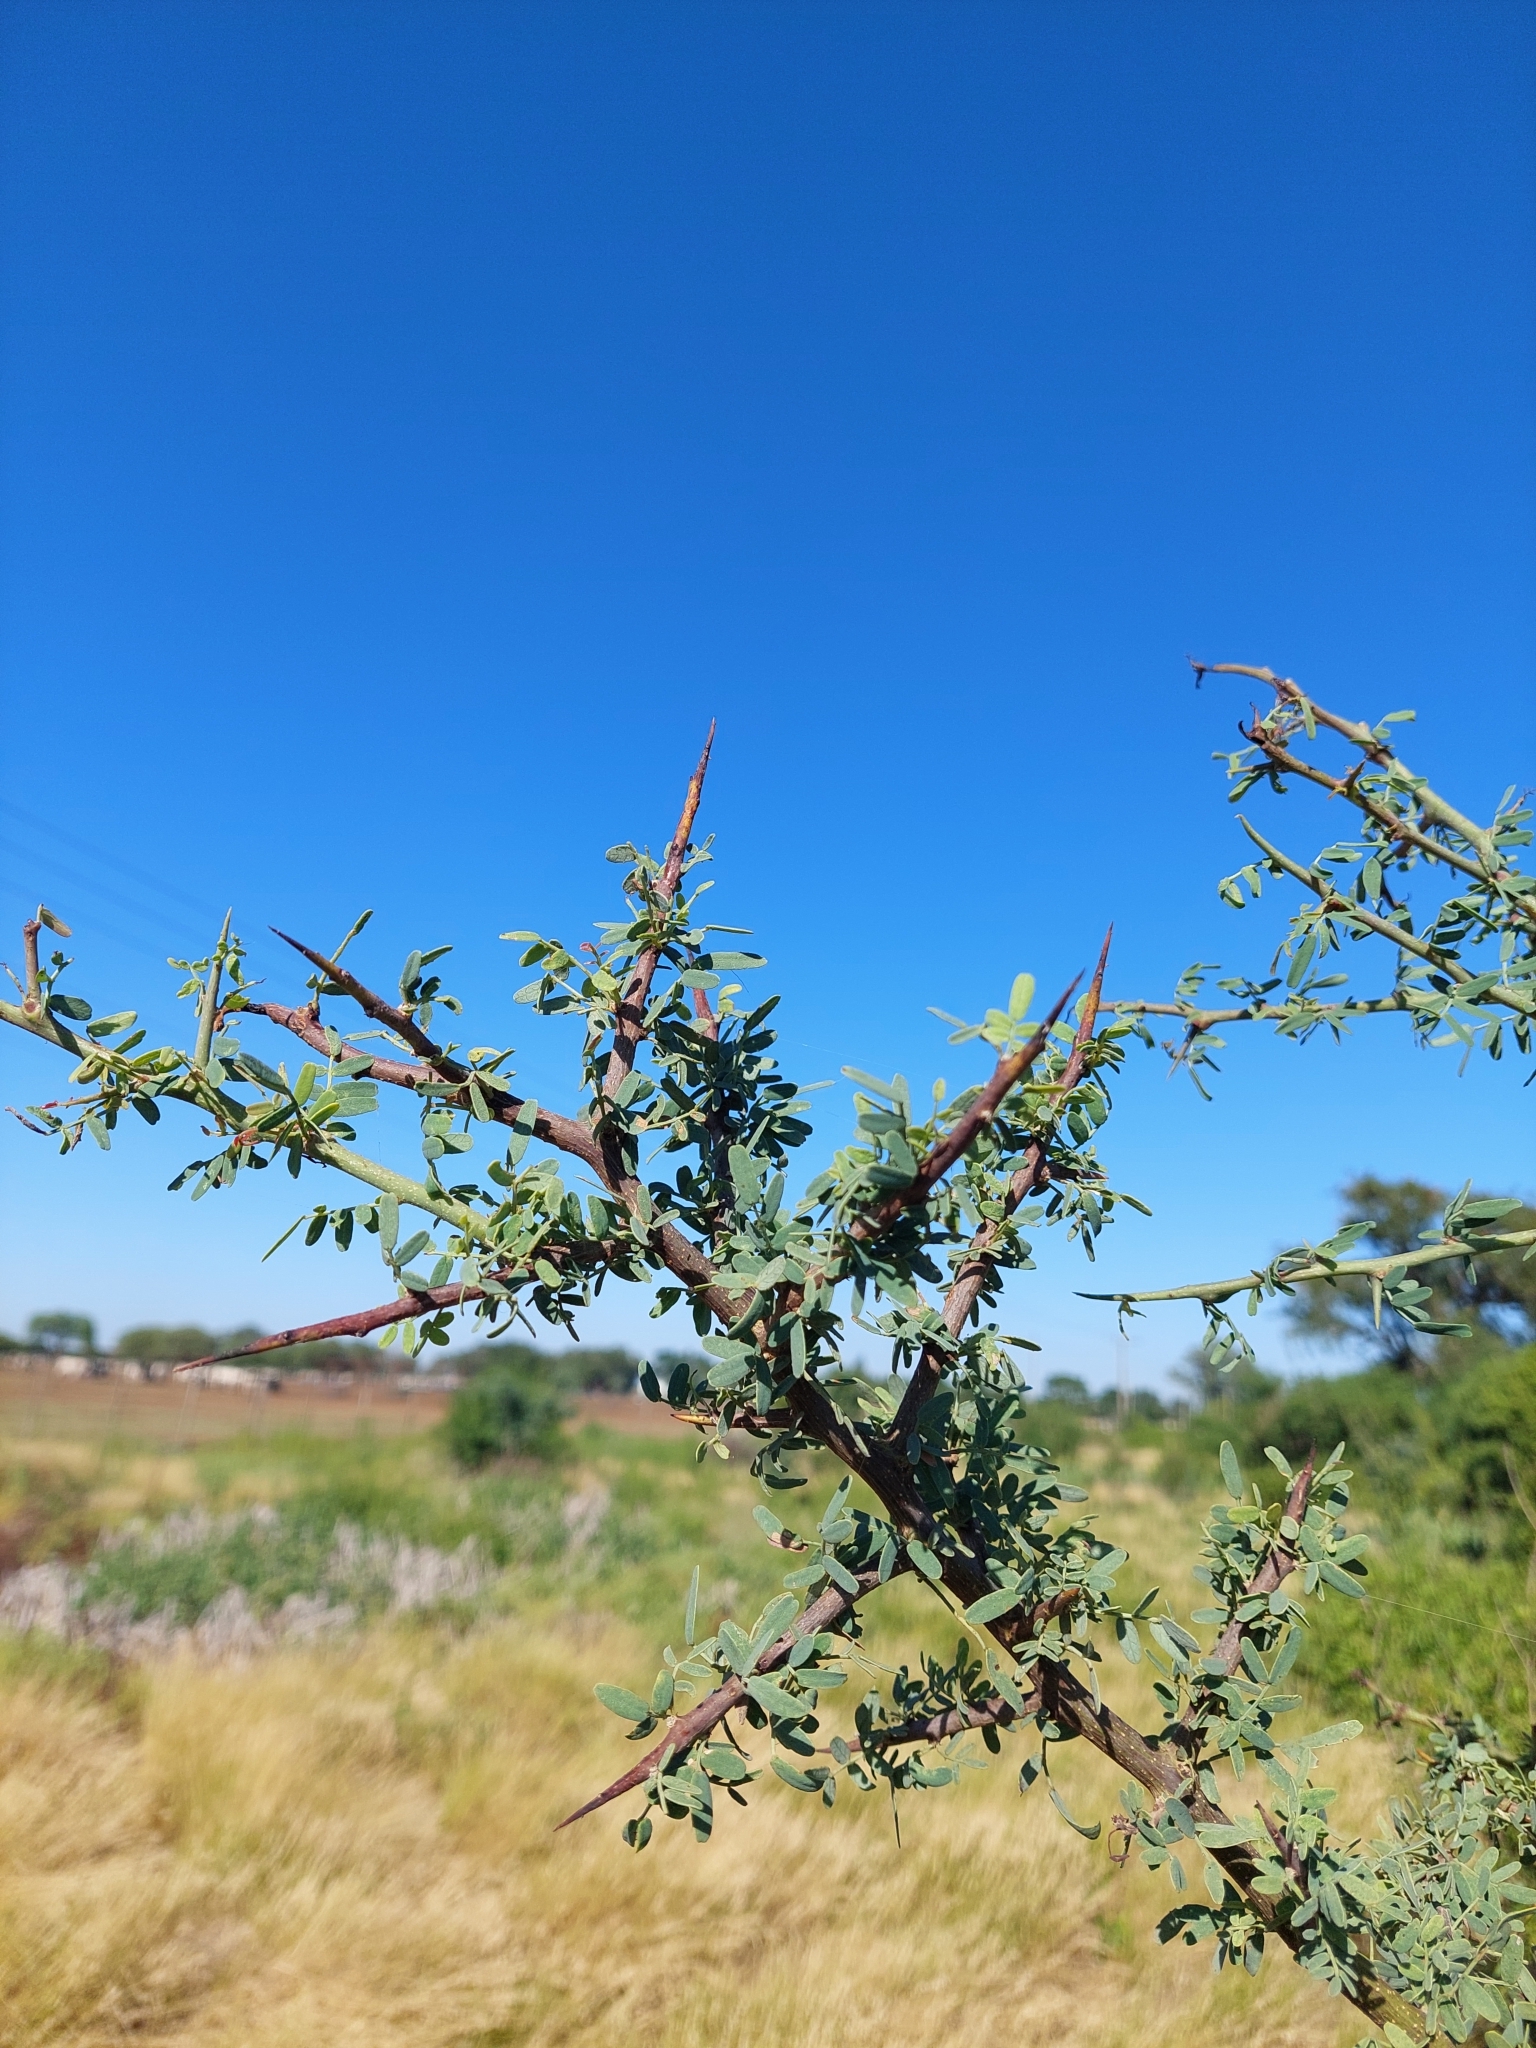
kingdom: Plantae
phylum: Tracheophyta
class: Magnoliopsida
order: Fabales
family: Fabaceae
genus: Geoffroea
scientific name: Geoffroea decorticans
